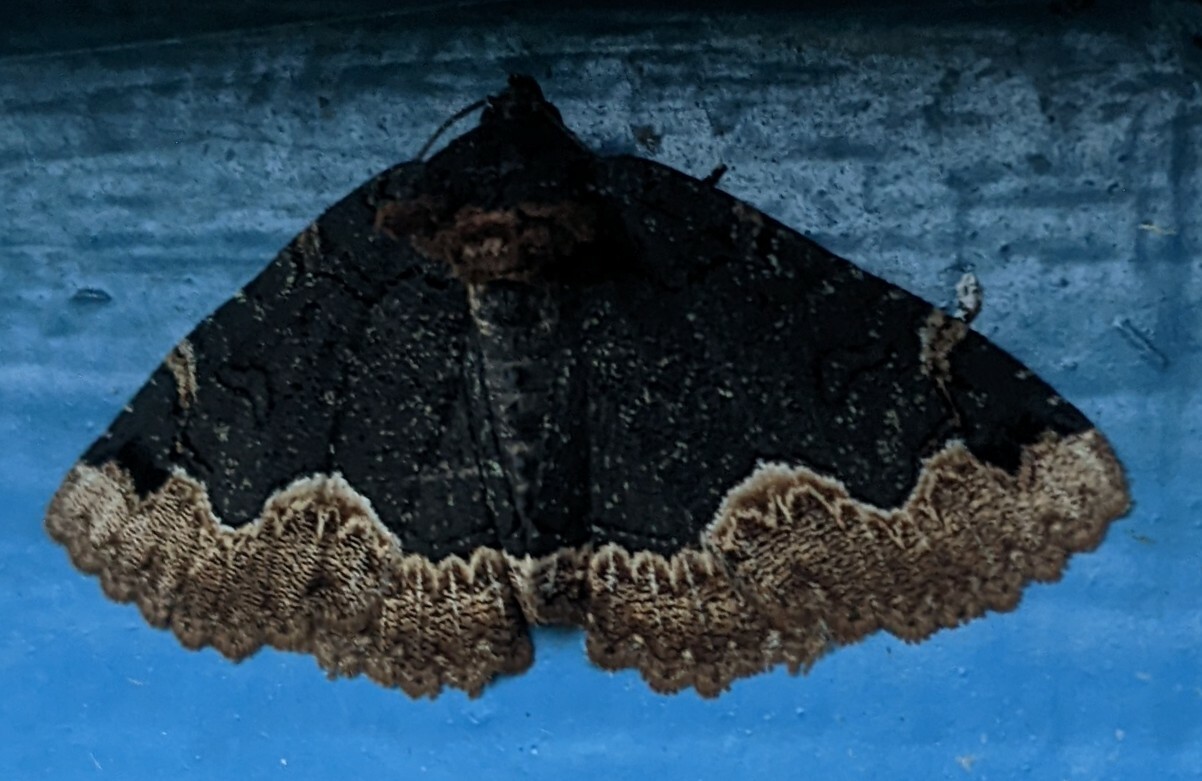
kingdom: Animalia
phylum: Arthropoda
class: Insecta
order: Lepidoptera
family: Erebidae
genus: Zale
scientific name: Zale horrida
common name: Horrid zale moth
